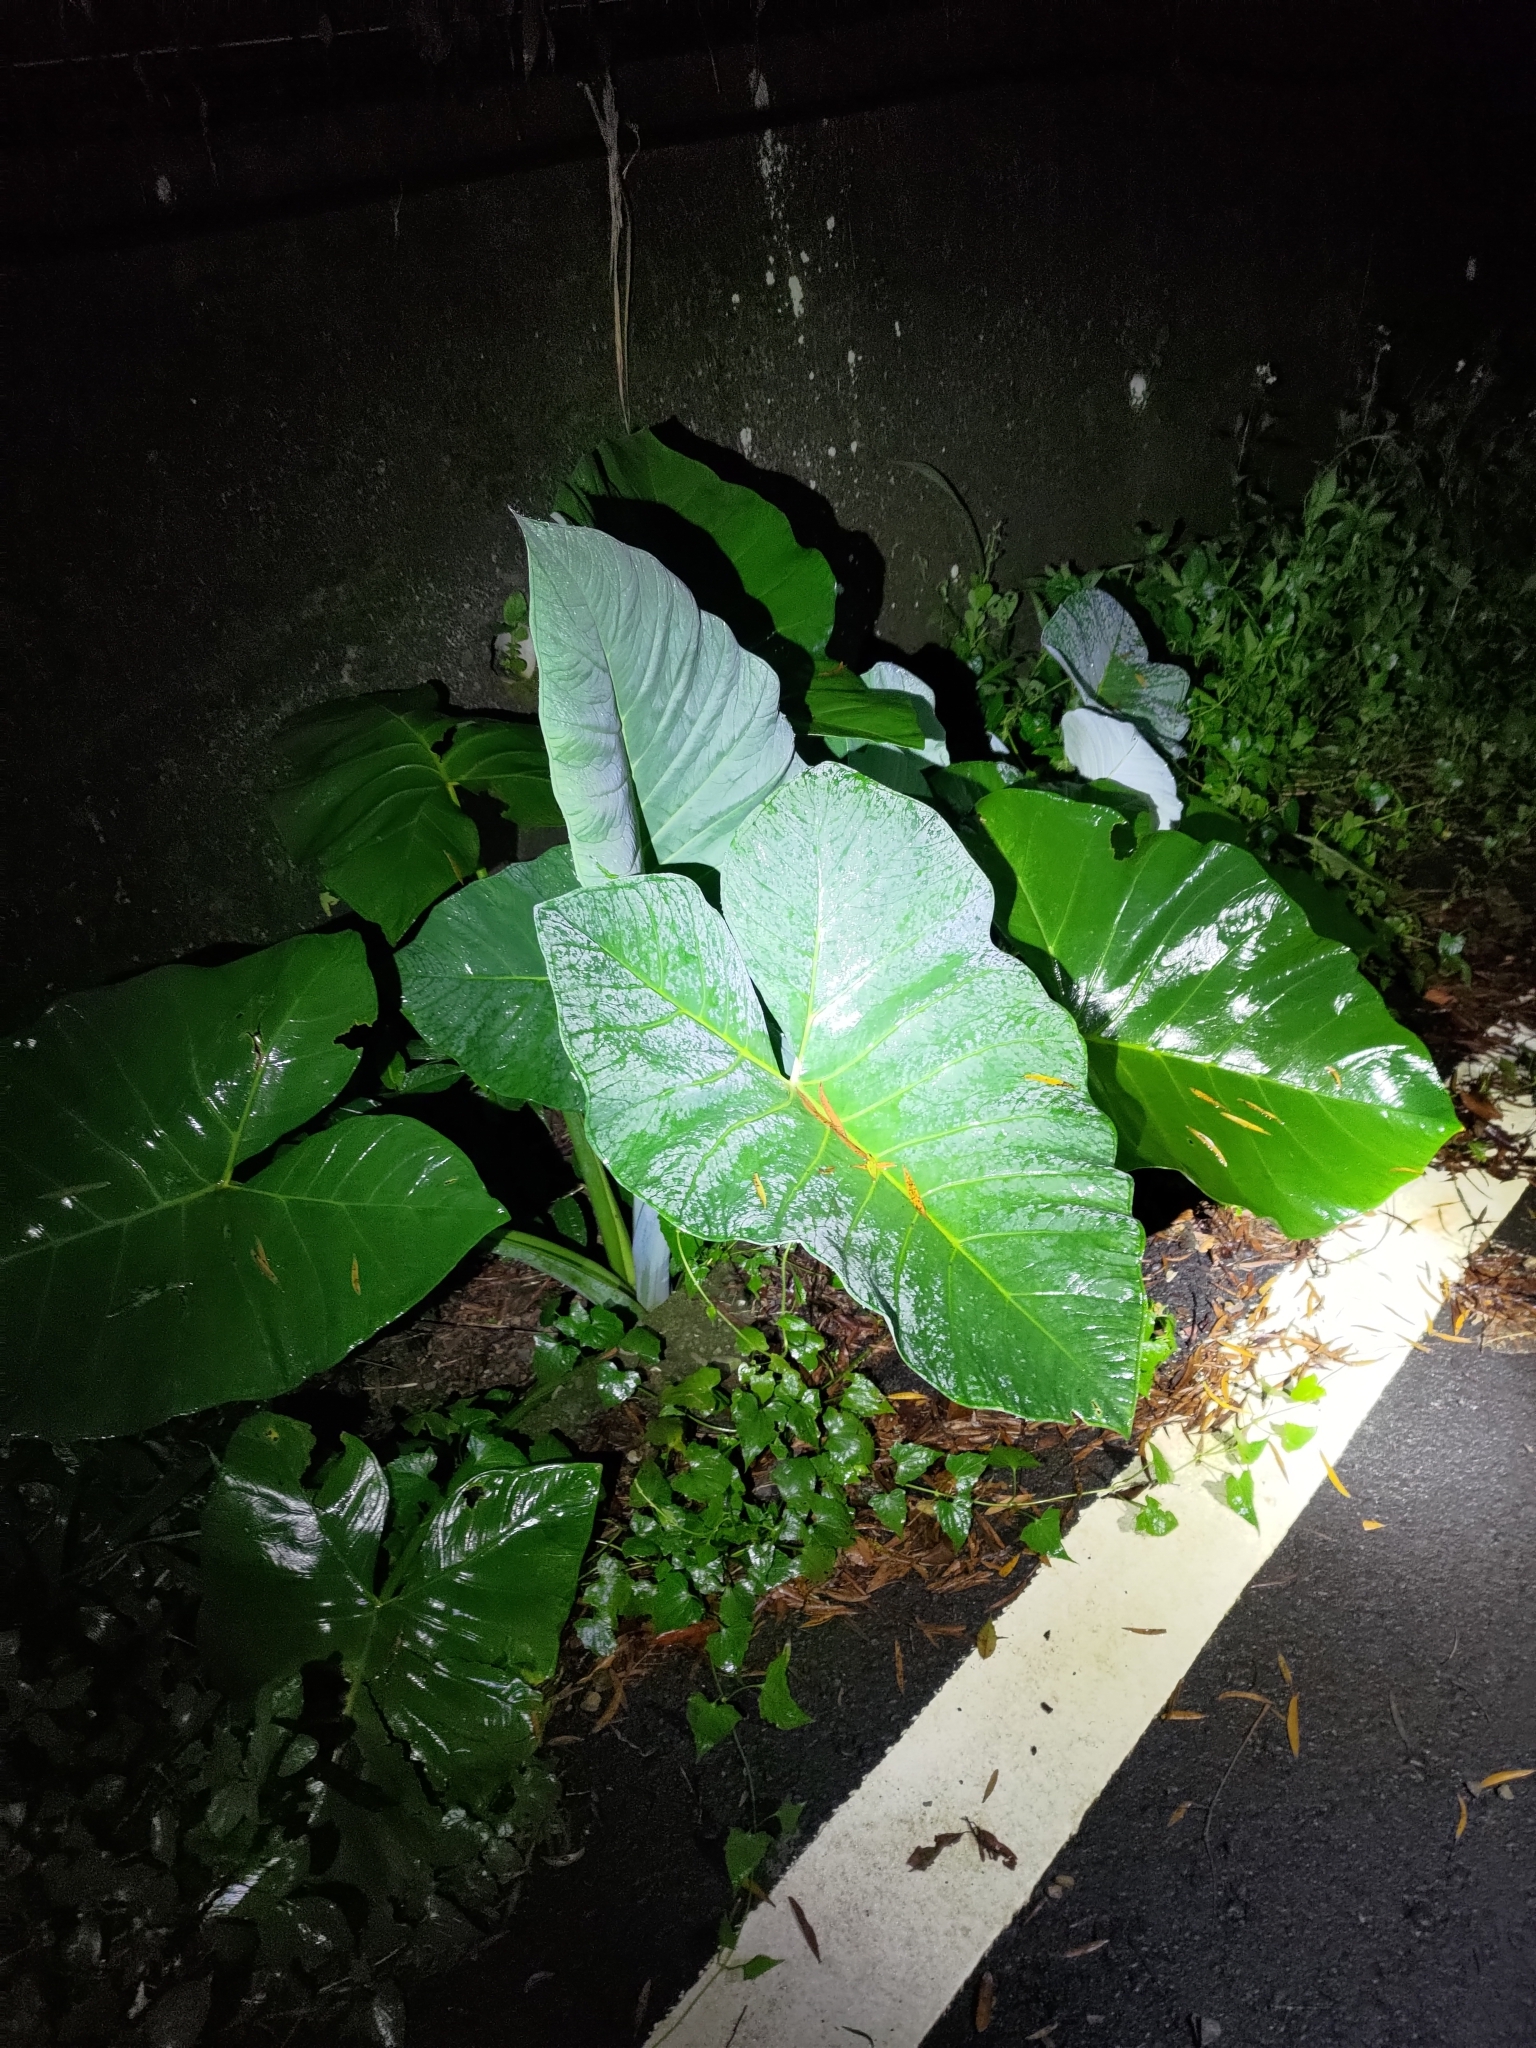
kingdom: Plantae
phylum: Tracheophyta
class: Liliopsida
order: Alismatales
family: Araceae
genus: Xanthosoma
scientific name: Xanthosoma sagittifolium
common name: Arrowleaf elephant's ear
